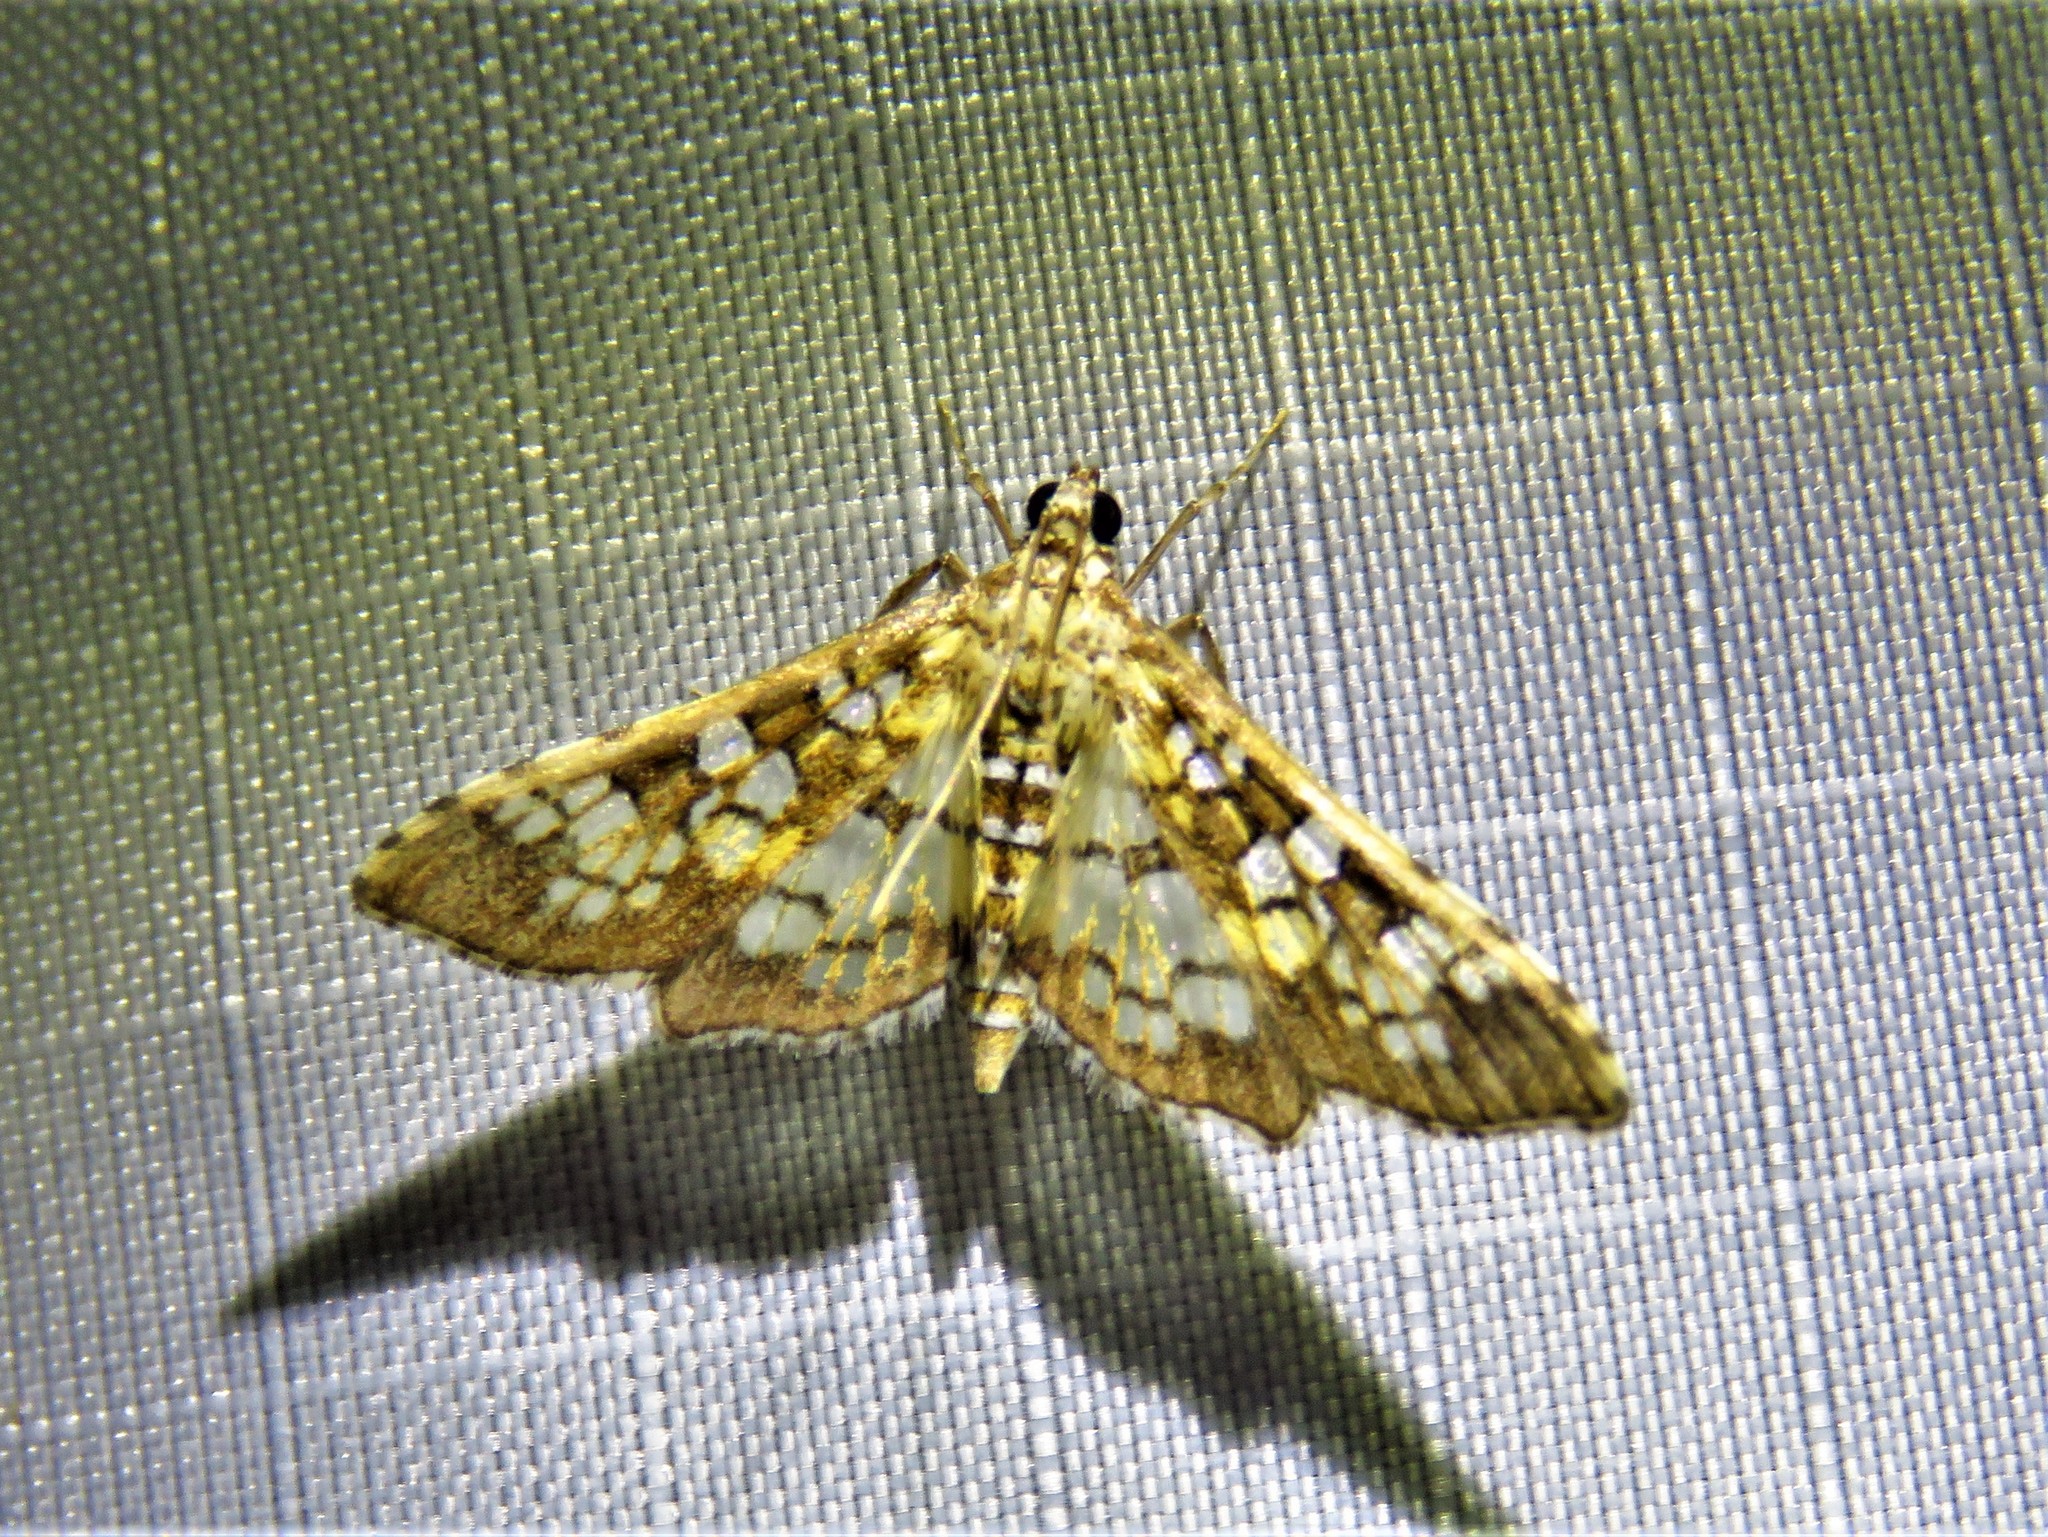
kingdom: Animalia
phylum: Arthropoda
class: Insecta
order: Lepidoptera
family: Crambidae
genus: Samea
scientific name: Samea ecclesialis
